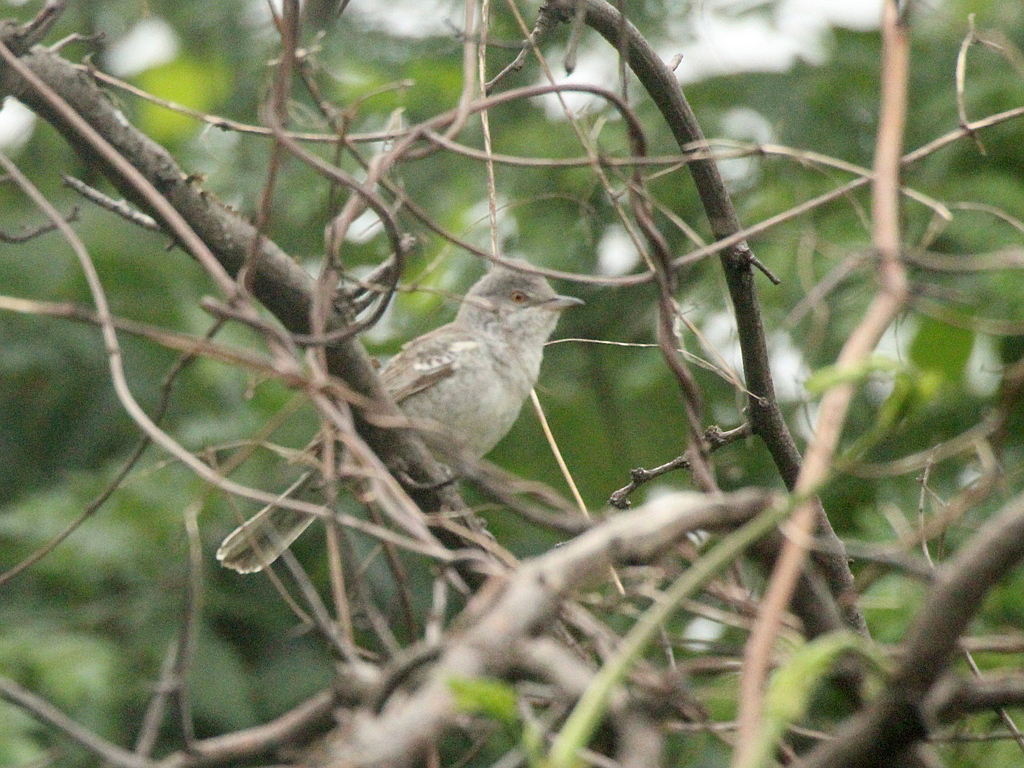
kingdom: Animalia
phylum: Chordata
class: Aves
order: Passeriformes
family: Sylviidae
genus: Sylvia
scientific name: Sylvia nisoria
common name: Barred warbler
